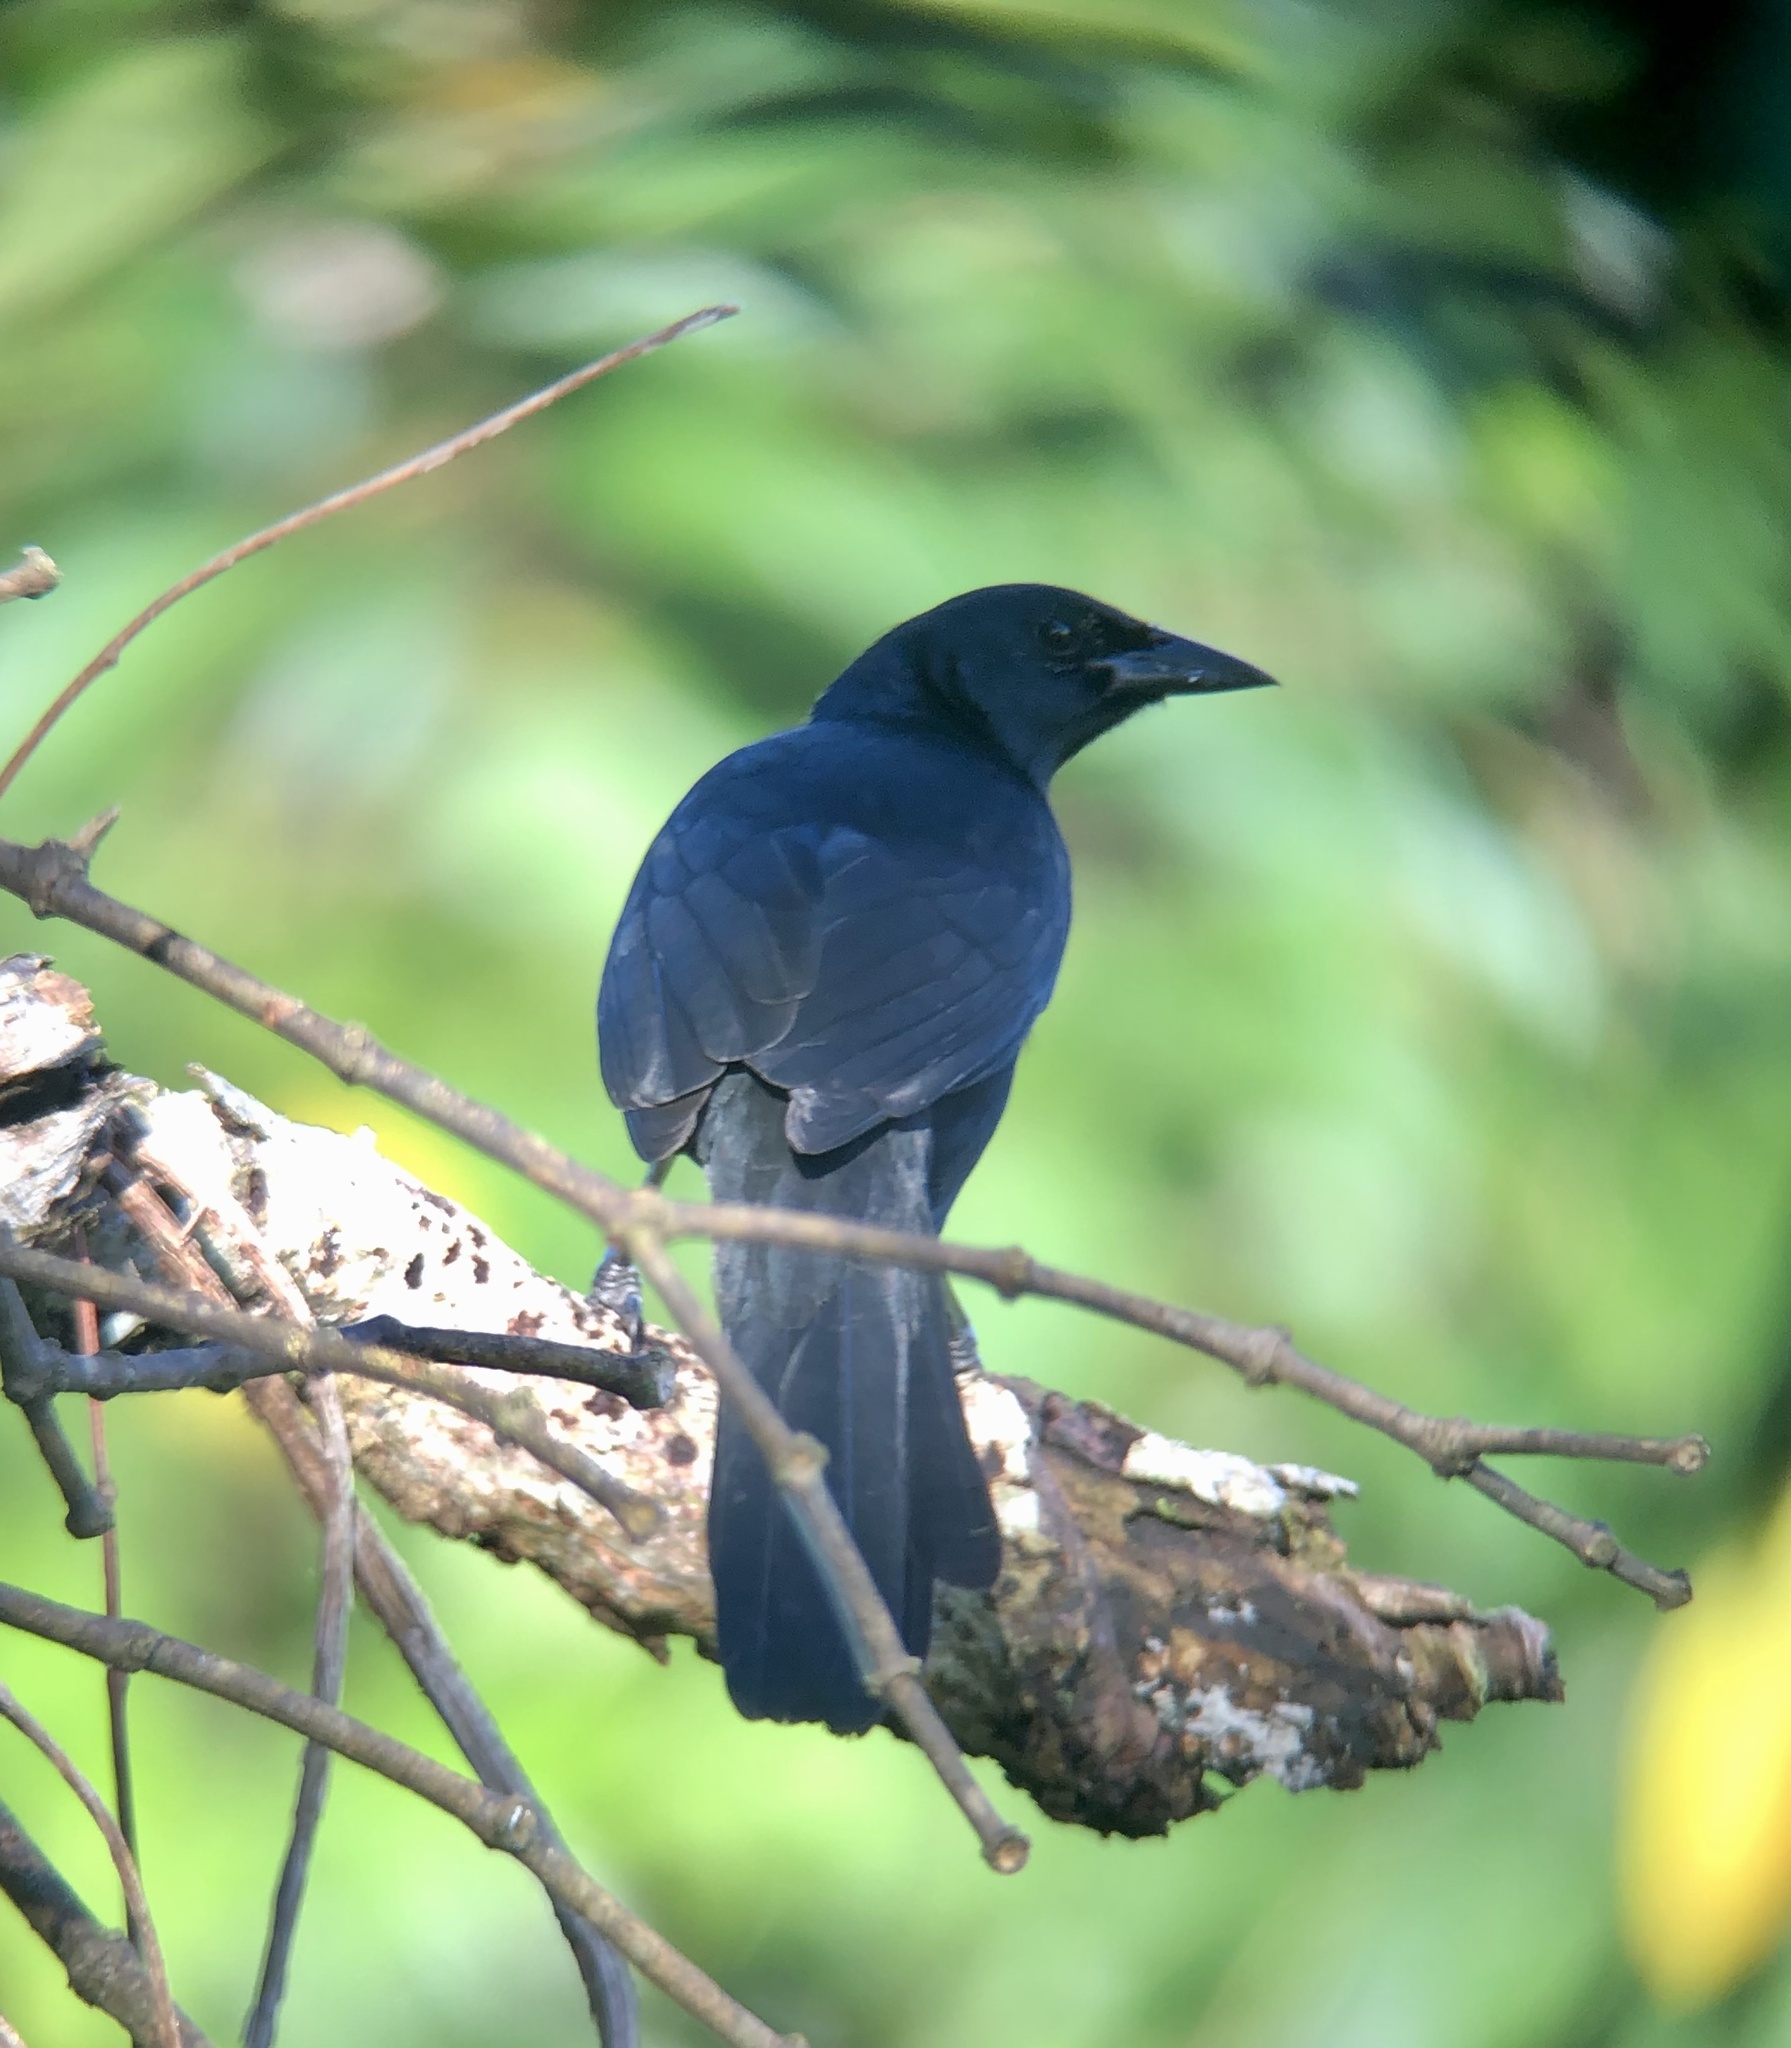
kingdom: Animalia
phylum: Chordata
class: Aves
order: Passeriformes
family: Icteridae
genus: Dives
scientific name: Dives dives
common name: Melodious blackbird
